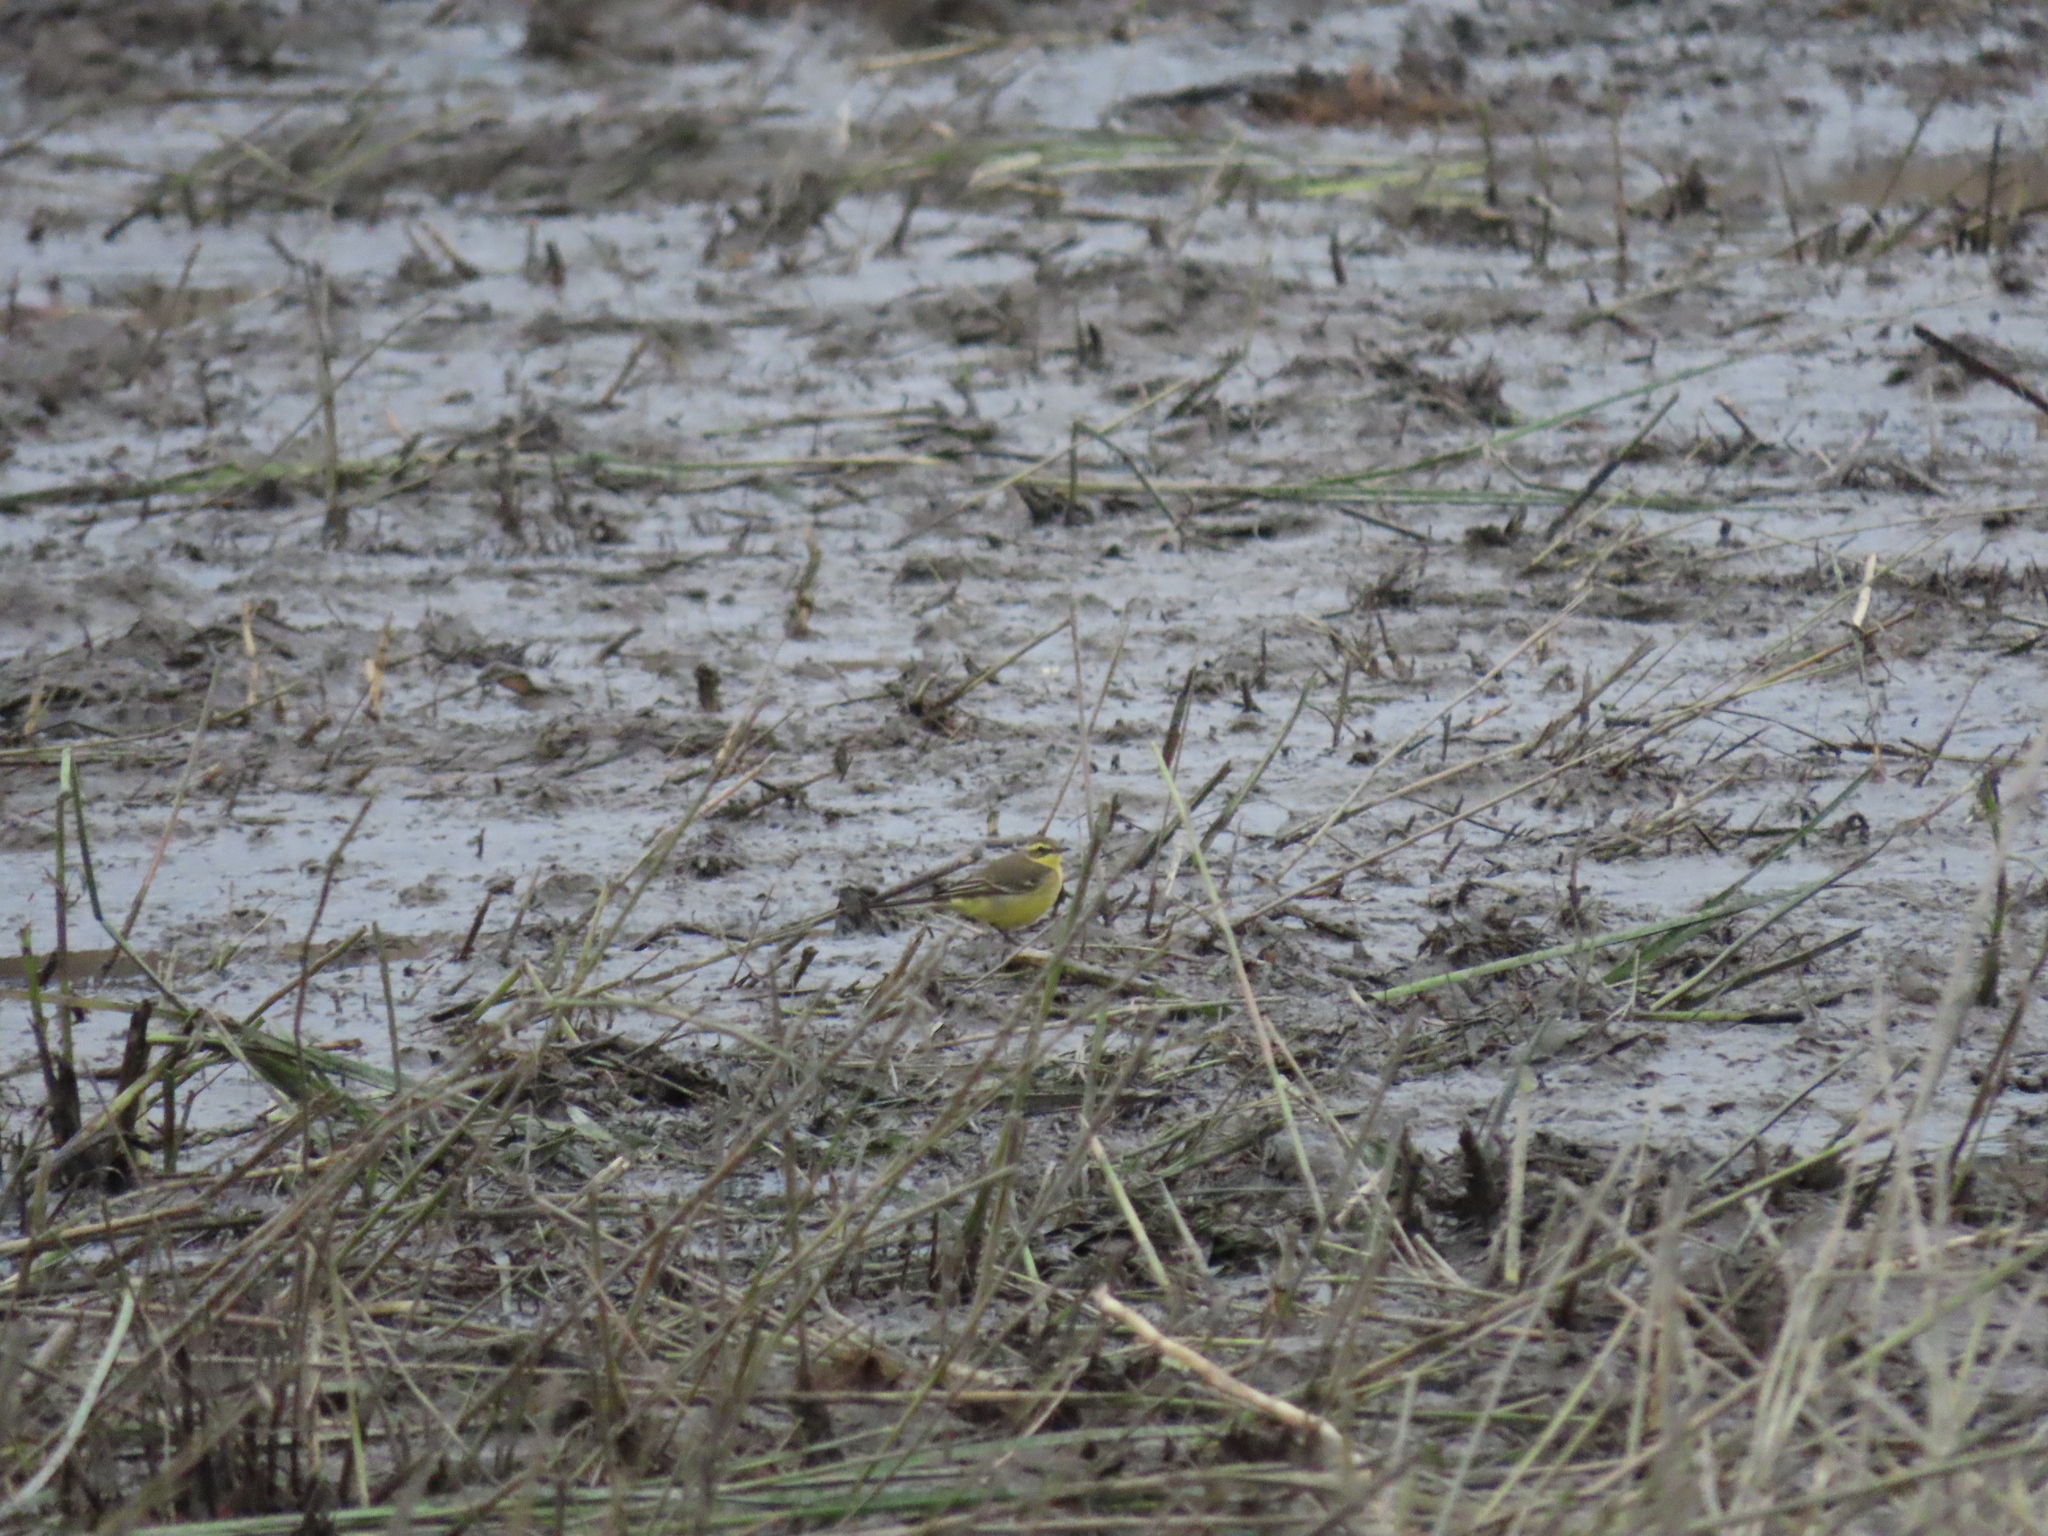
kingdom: Animalia
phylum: Chordata
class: Aves
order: Passeriformes
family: Motacillidae
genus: Motacilla
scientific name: Motacilla tschutschensis
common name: Eastern yellow wagtail
